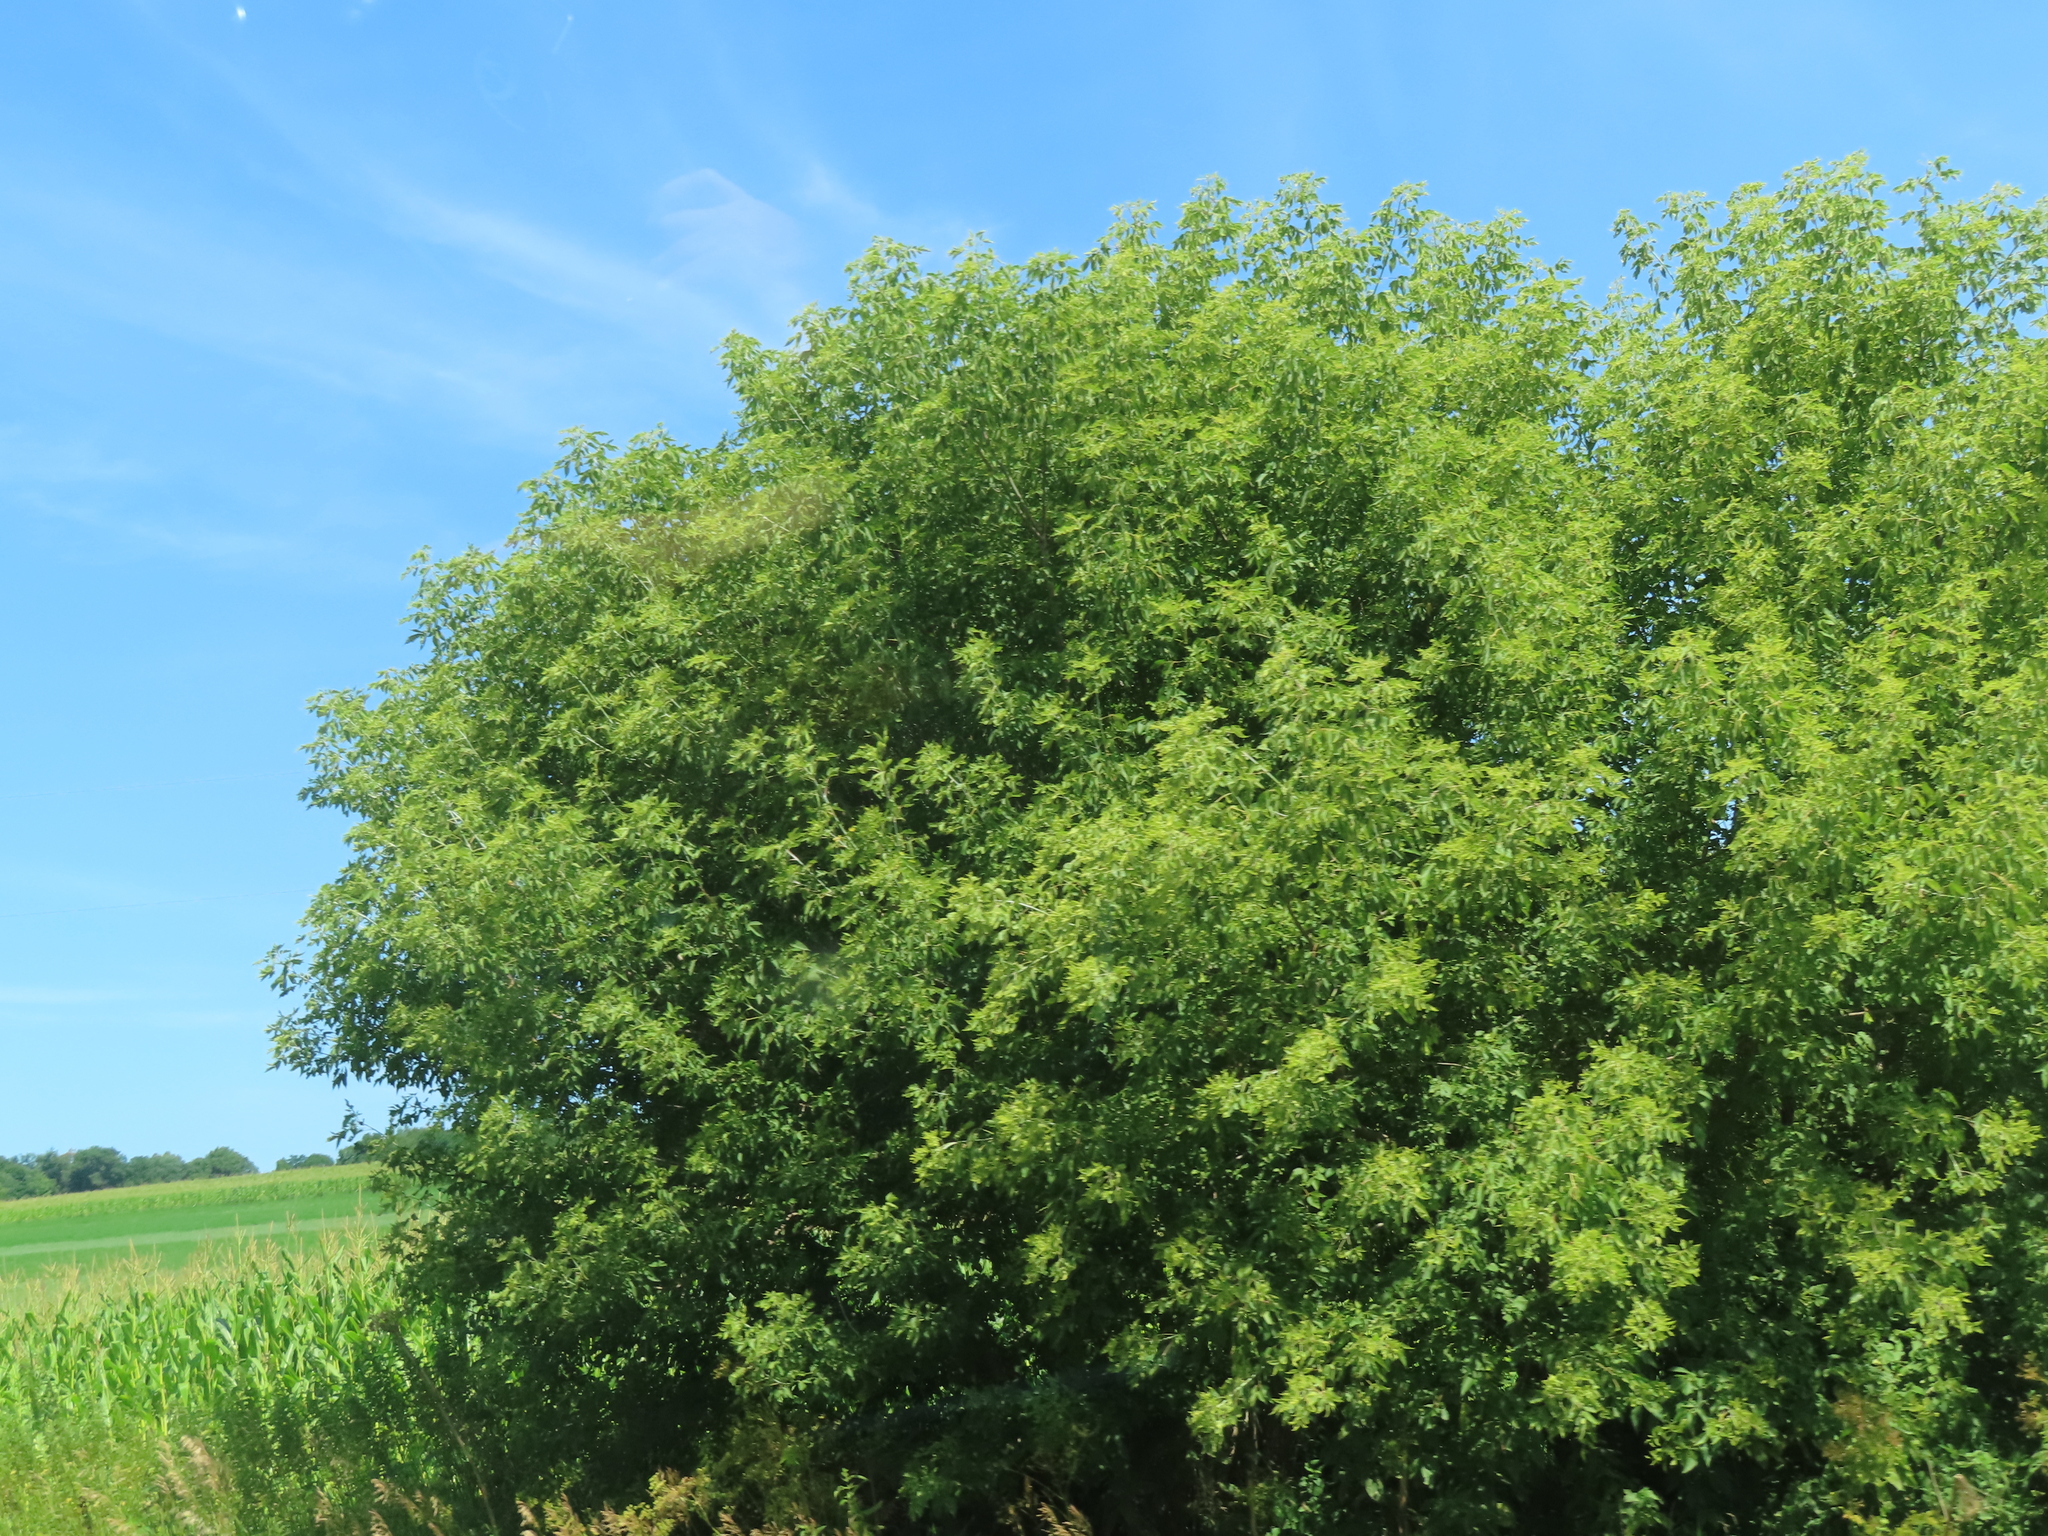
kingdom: Plantae
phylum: Tracheophyta
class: Magnoliopsida
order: Sapindales
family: Sapindaceae
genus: Acer
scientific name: Acer negundo
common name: Ashleaf maple
